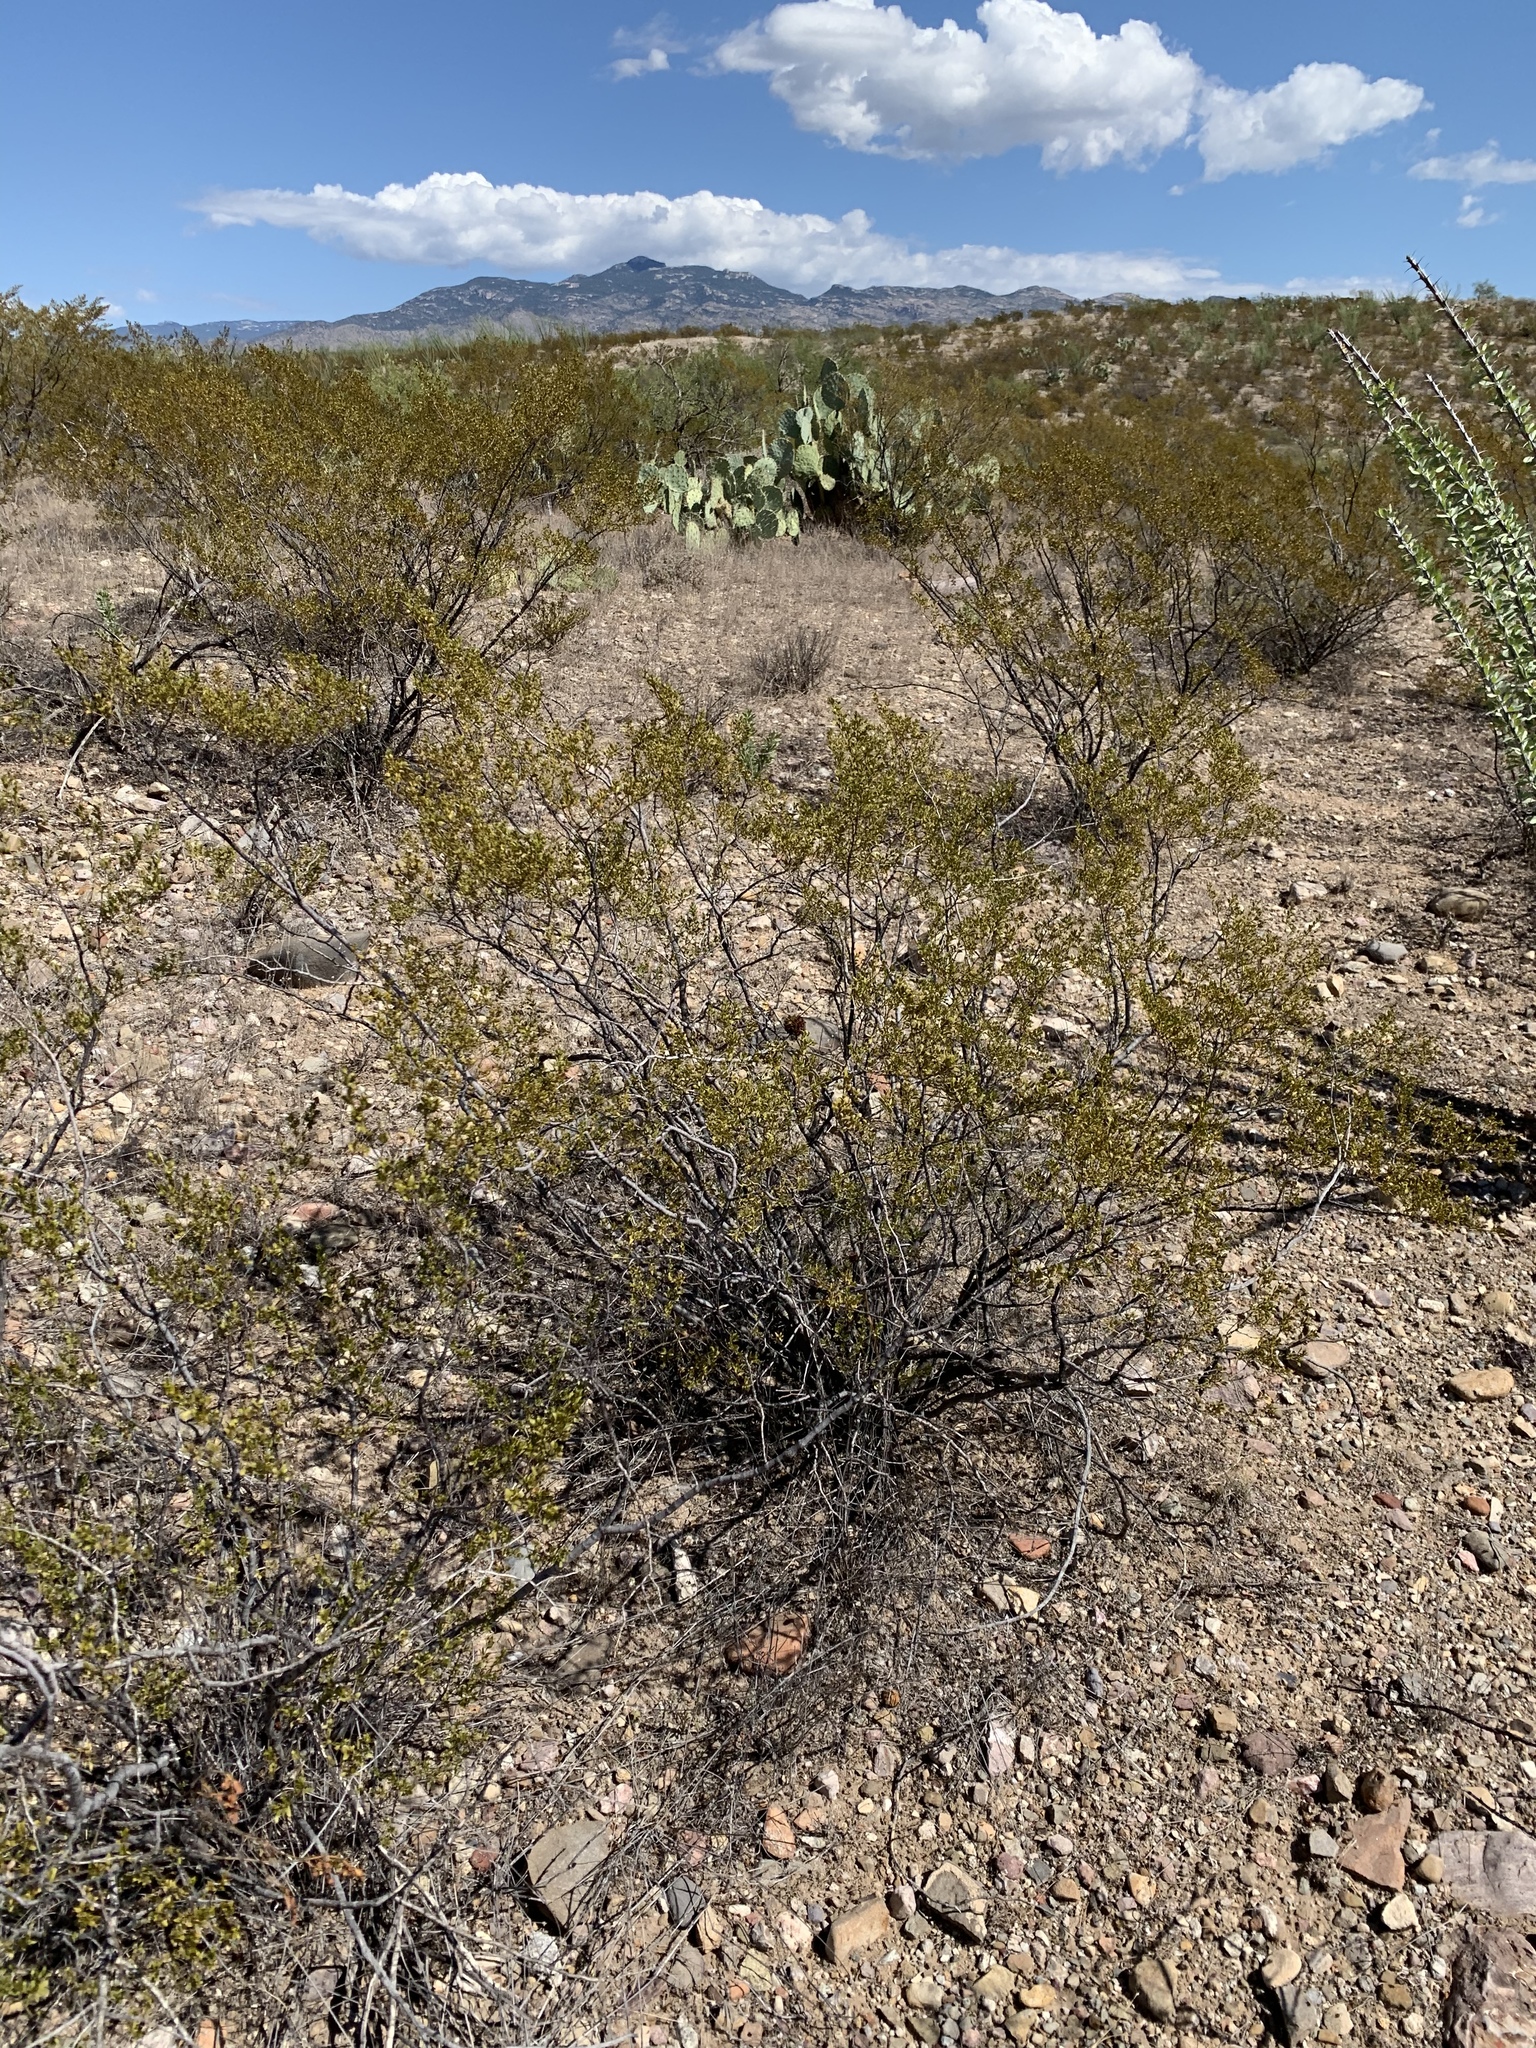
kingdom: Plantae
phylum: Tracheophyta
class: Magnoliopsida
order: Zygophyllales
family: Zygophyllaceae
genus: Larrea
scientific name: Larrea tridentata
